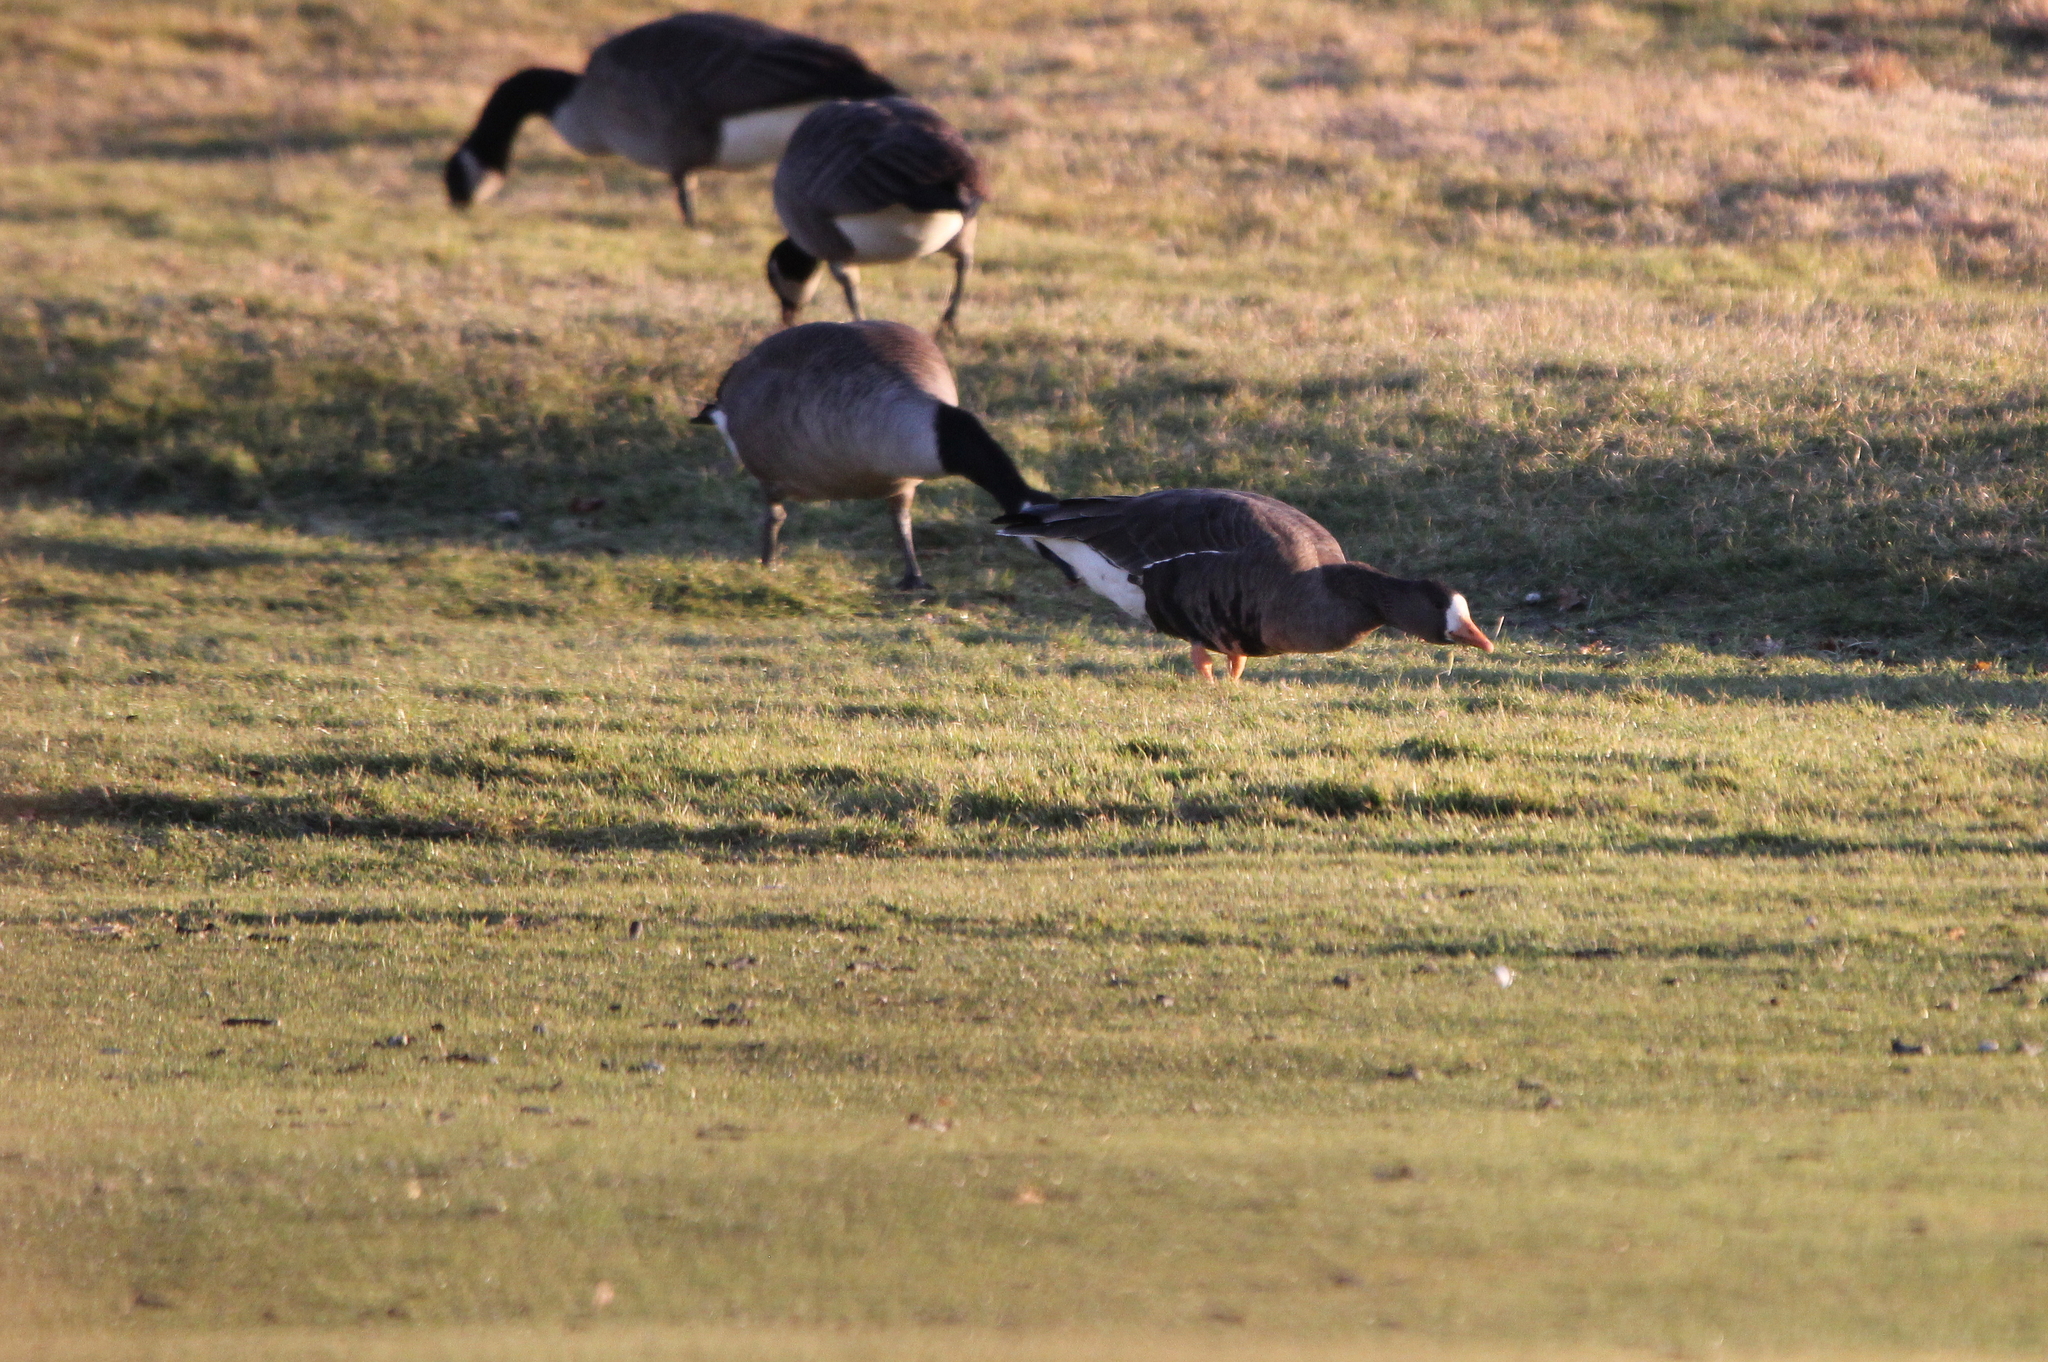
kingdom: Animalia
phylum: Chordata
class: Aves
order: Anseriformes
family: Anatidae
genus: Anser
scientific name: Anser albifrons
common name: Greater white-fronted goose
